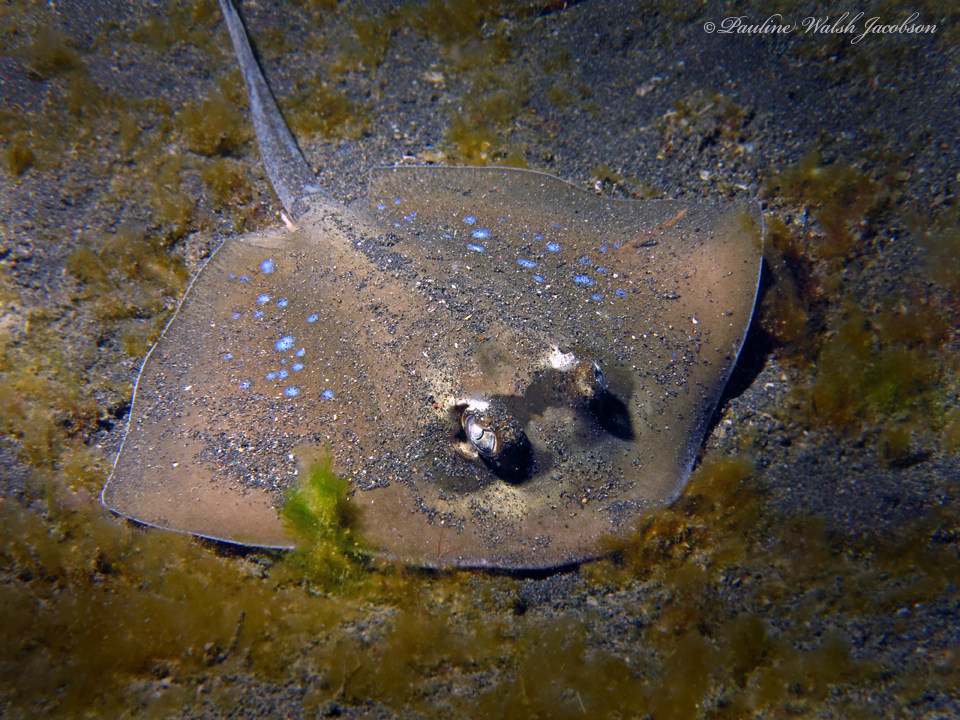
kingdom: Animalia
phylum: Chordata
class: Elasmobranchii
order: Myliobatiformes
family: Dasyatidae
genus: Neotrygon
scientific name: Neotrygon orientale
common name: Oriental bluespotted maskray
